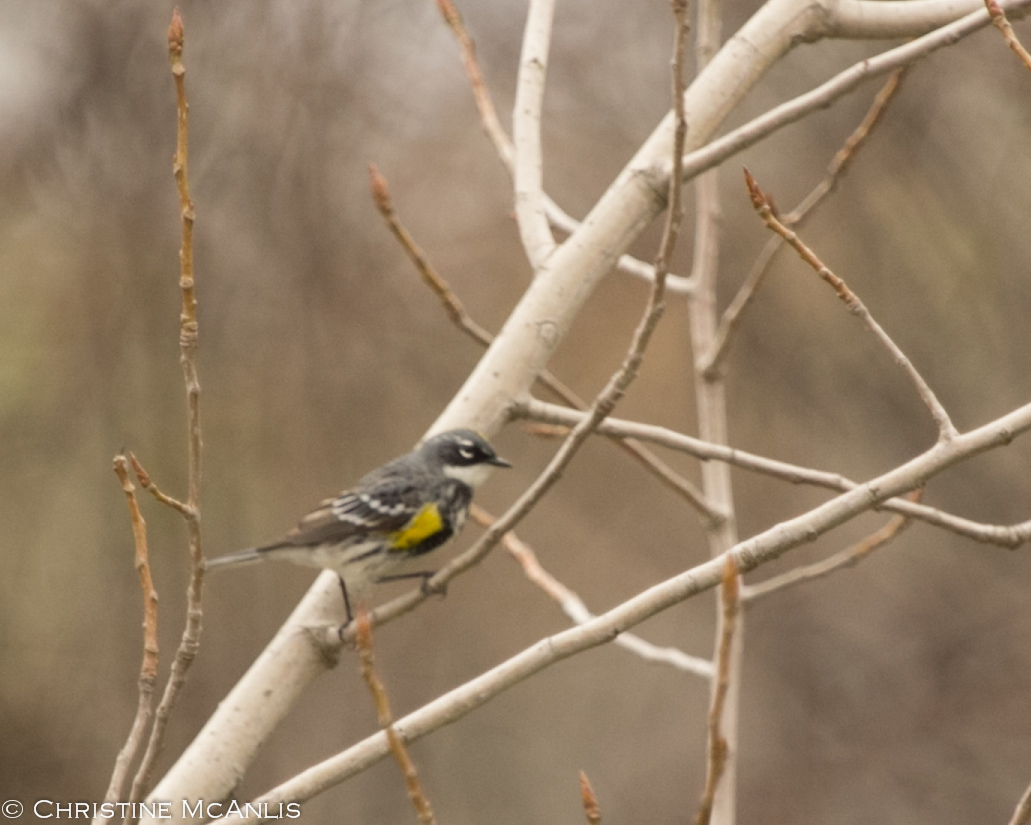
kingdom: Animalia
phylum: Chordata
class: Aves
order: Passeriformes
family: Parulidae
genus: Setophaga
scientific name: Setophaga coronata
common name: Myrtle warbler
